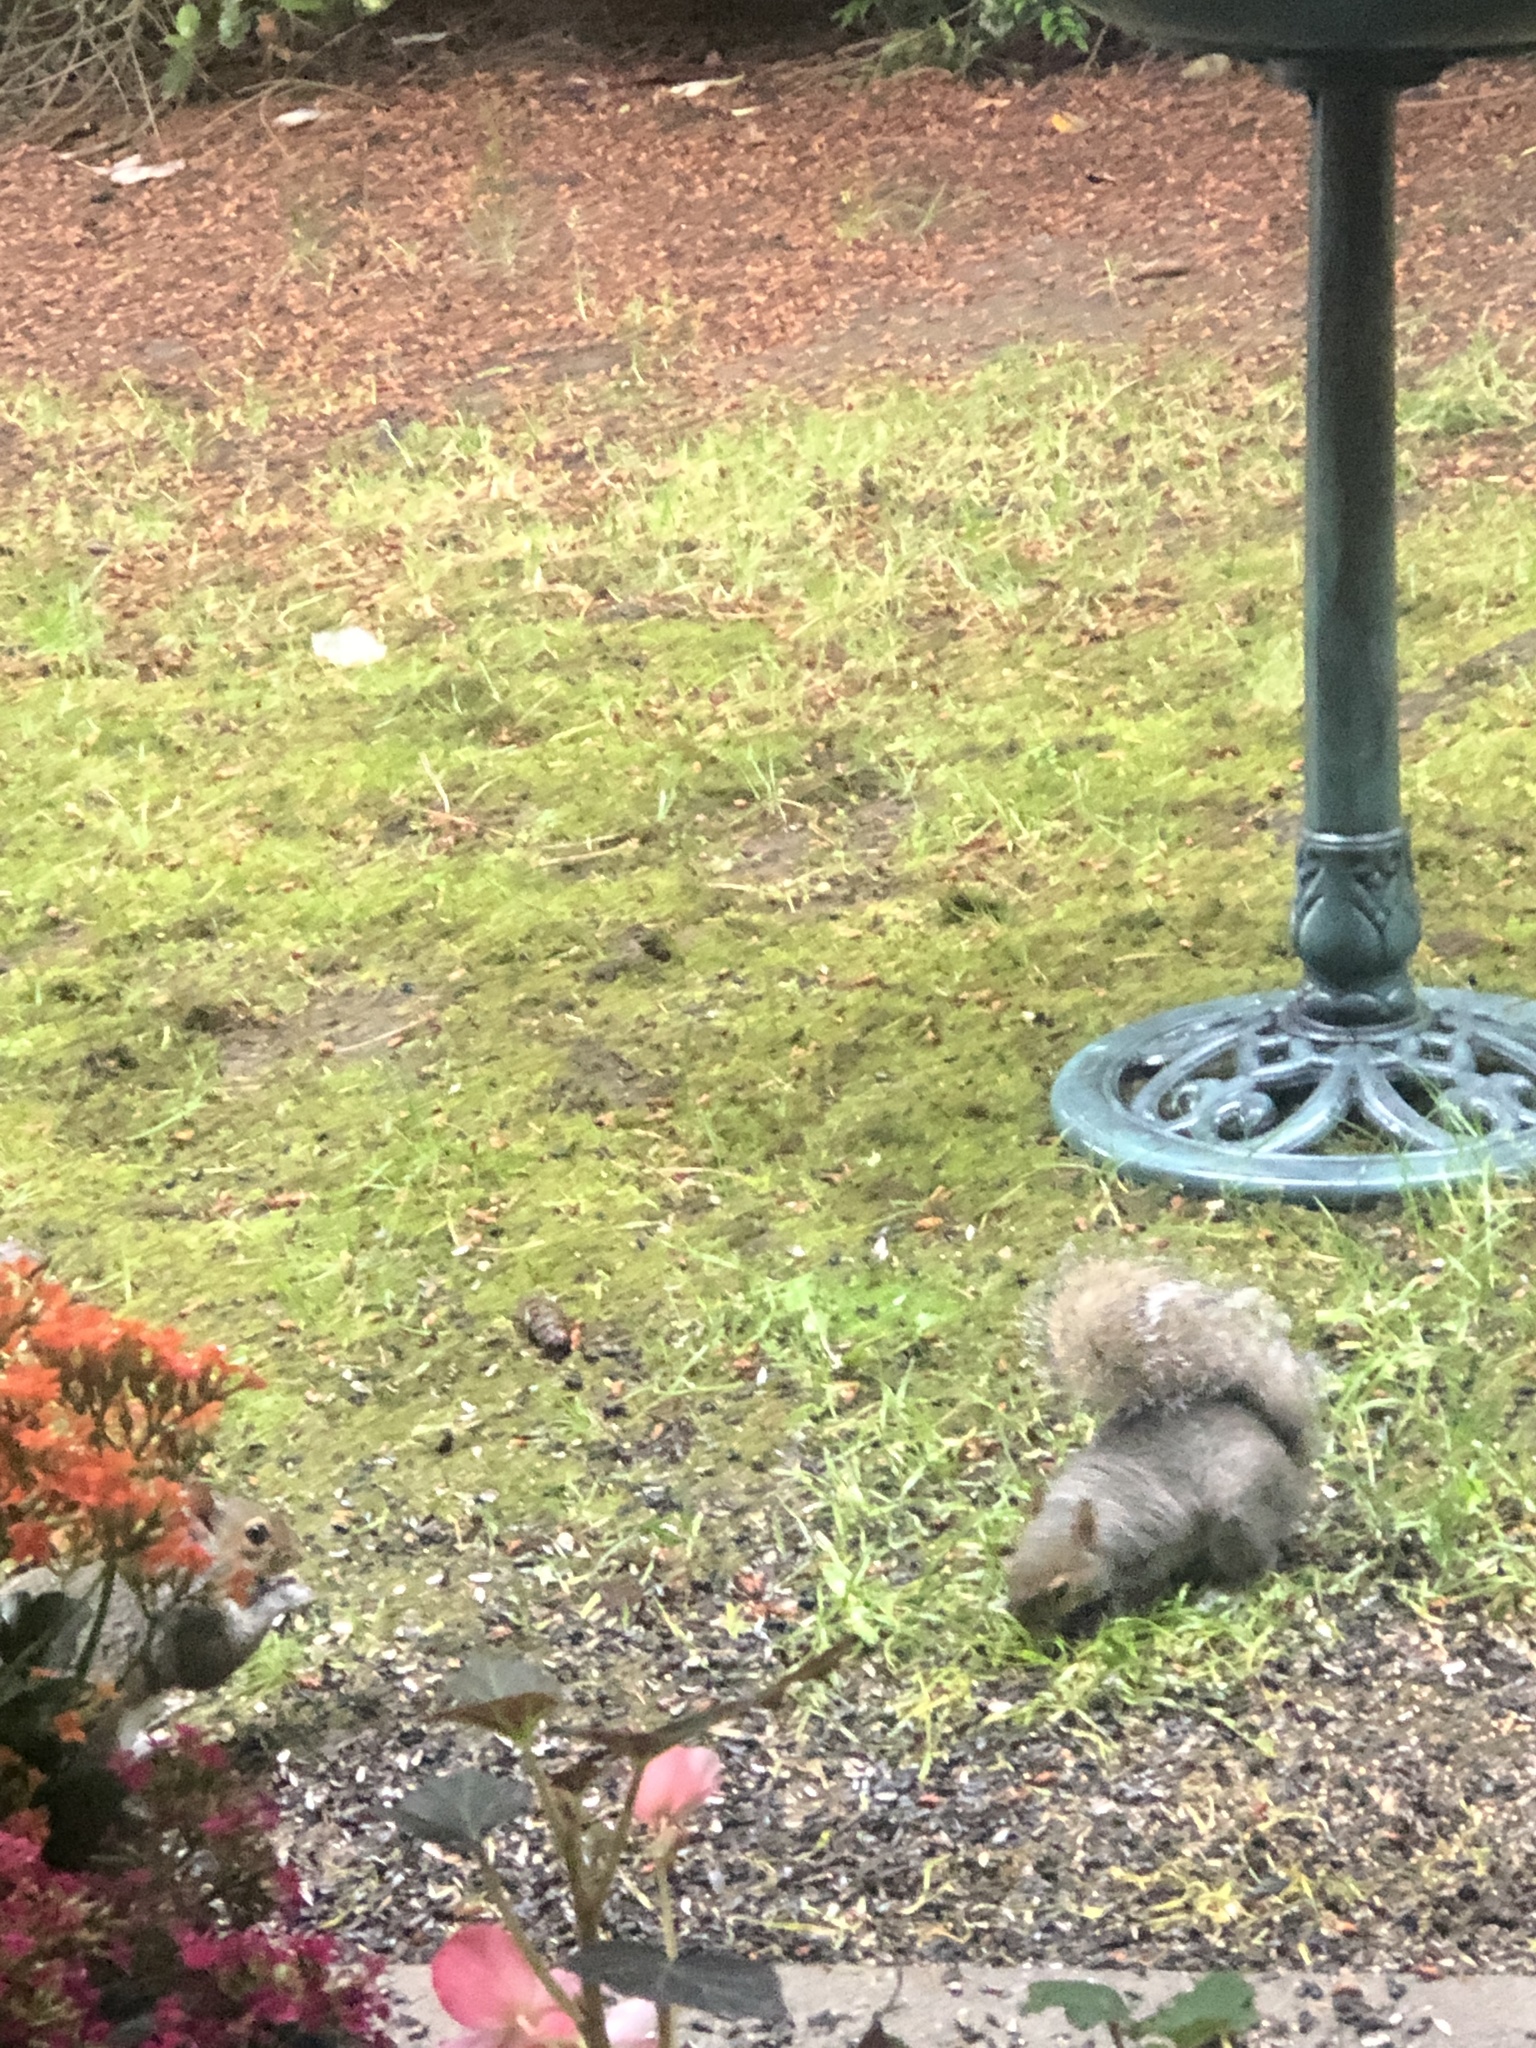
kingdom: Animalia
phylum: Chordata
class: Mammalia
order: Rodentia
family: Sciuridae
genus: Sciurus
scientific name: Sciurus carolinensis
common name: Eastern gray squirrel
